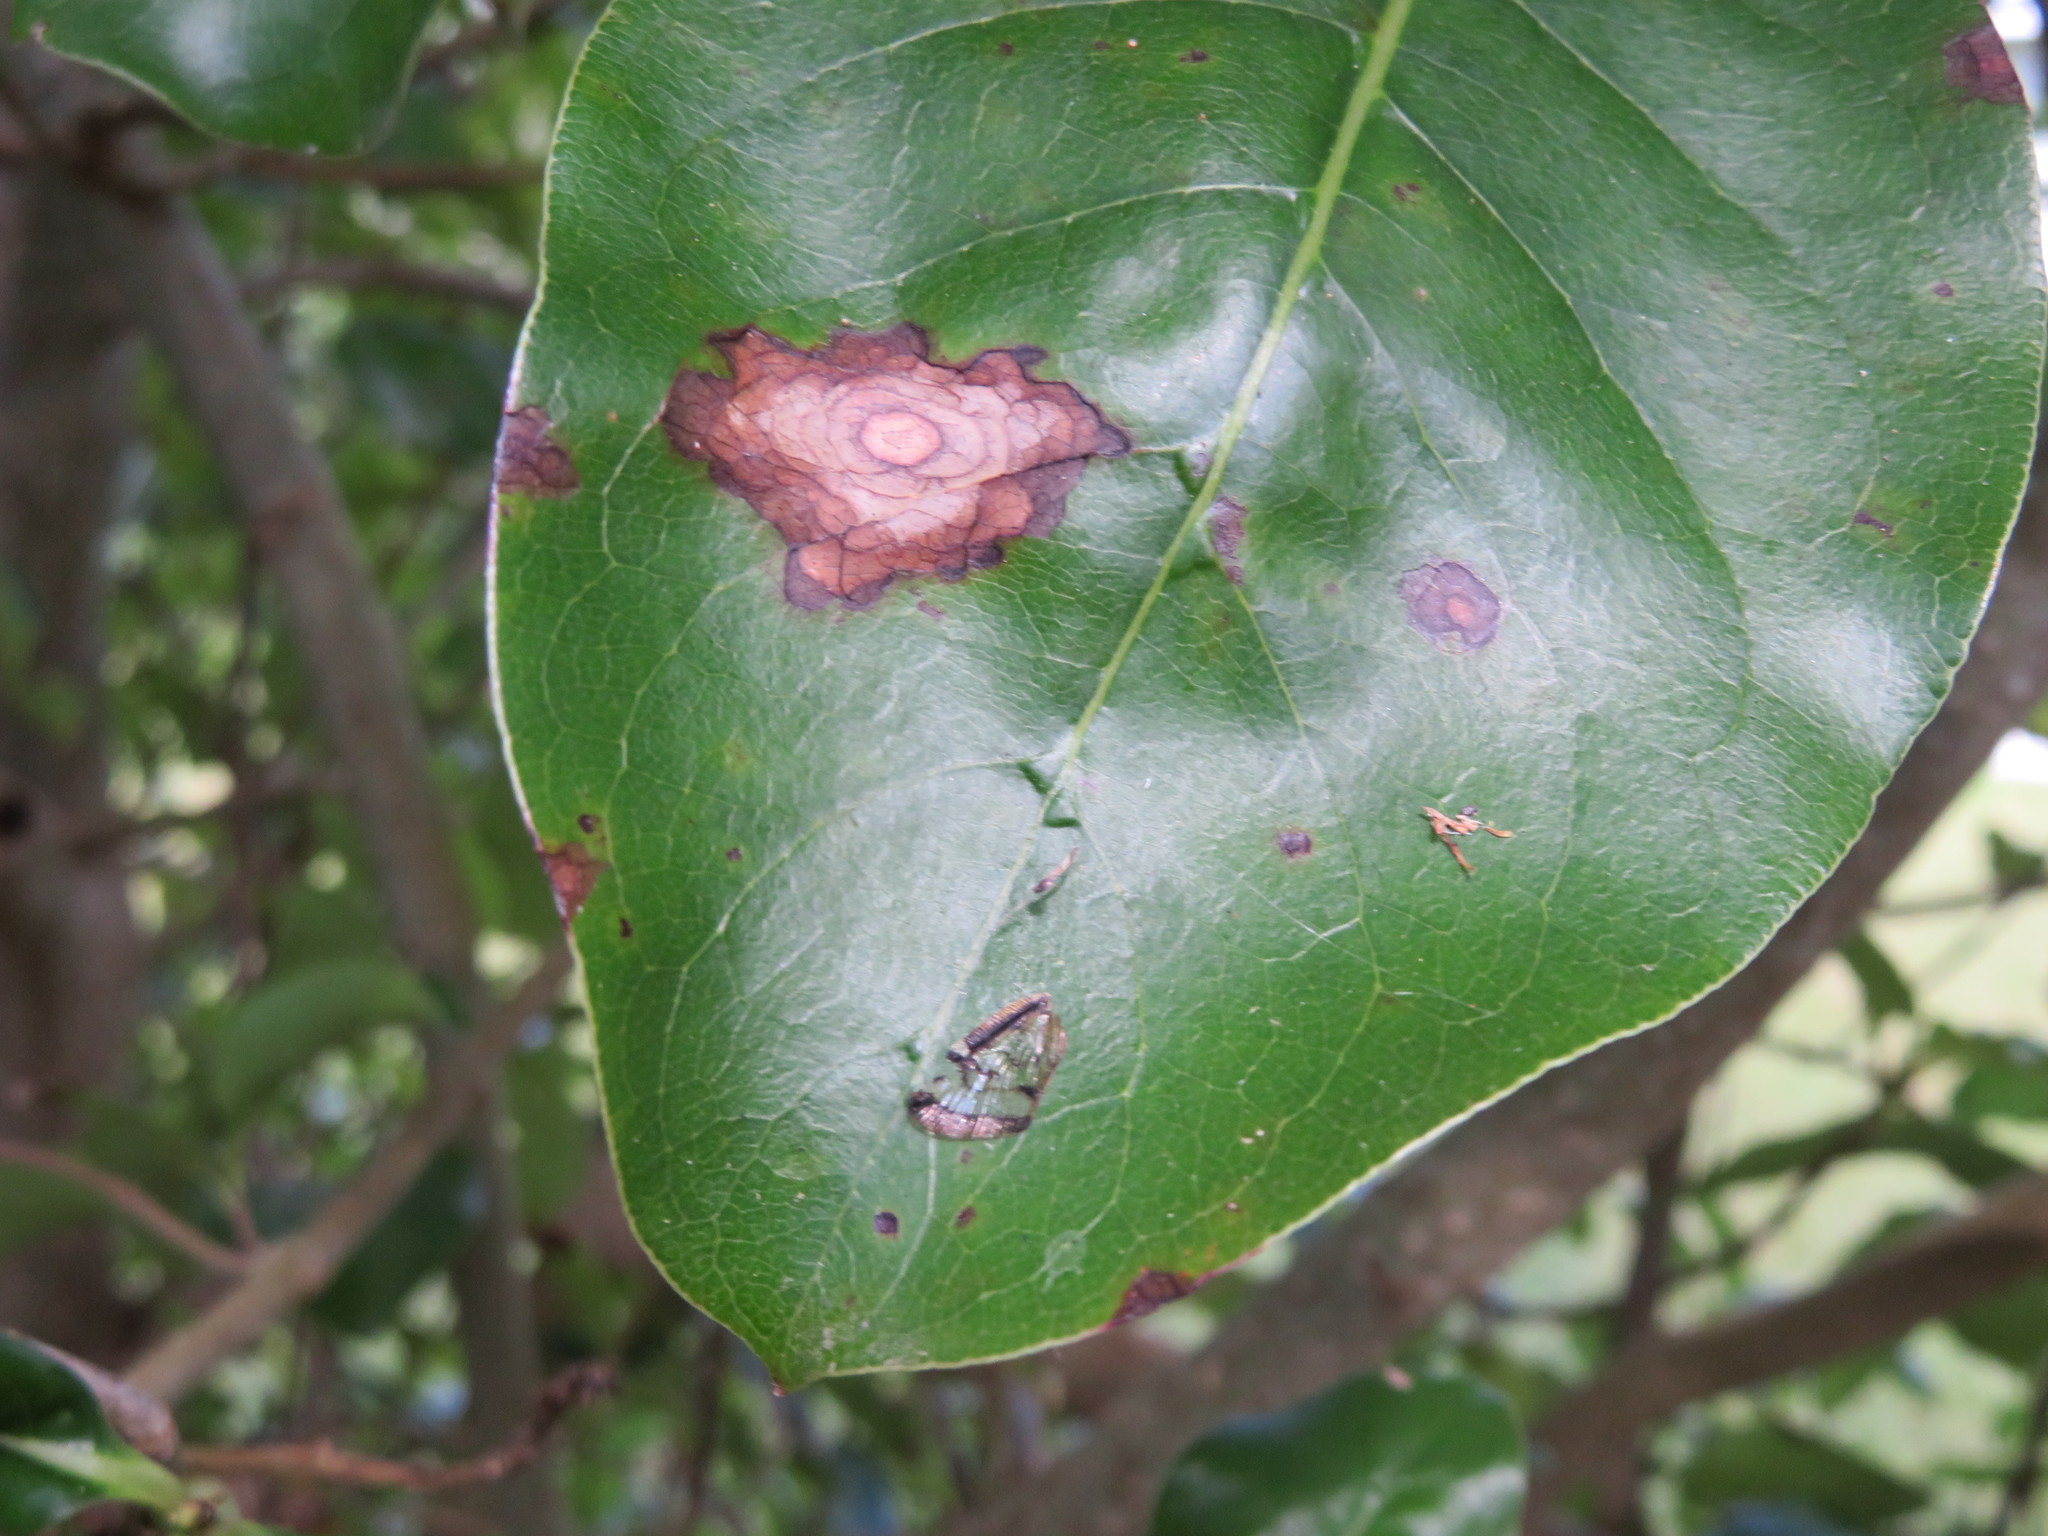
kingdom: Plantae
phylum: Tracheophyta
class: Magnoliopsida
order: Gentianales
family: Rubiaceae
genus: Coprosma
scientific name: Coprosma macrocarpa
